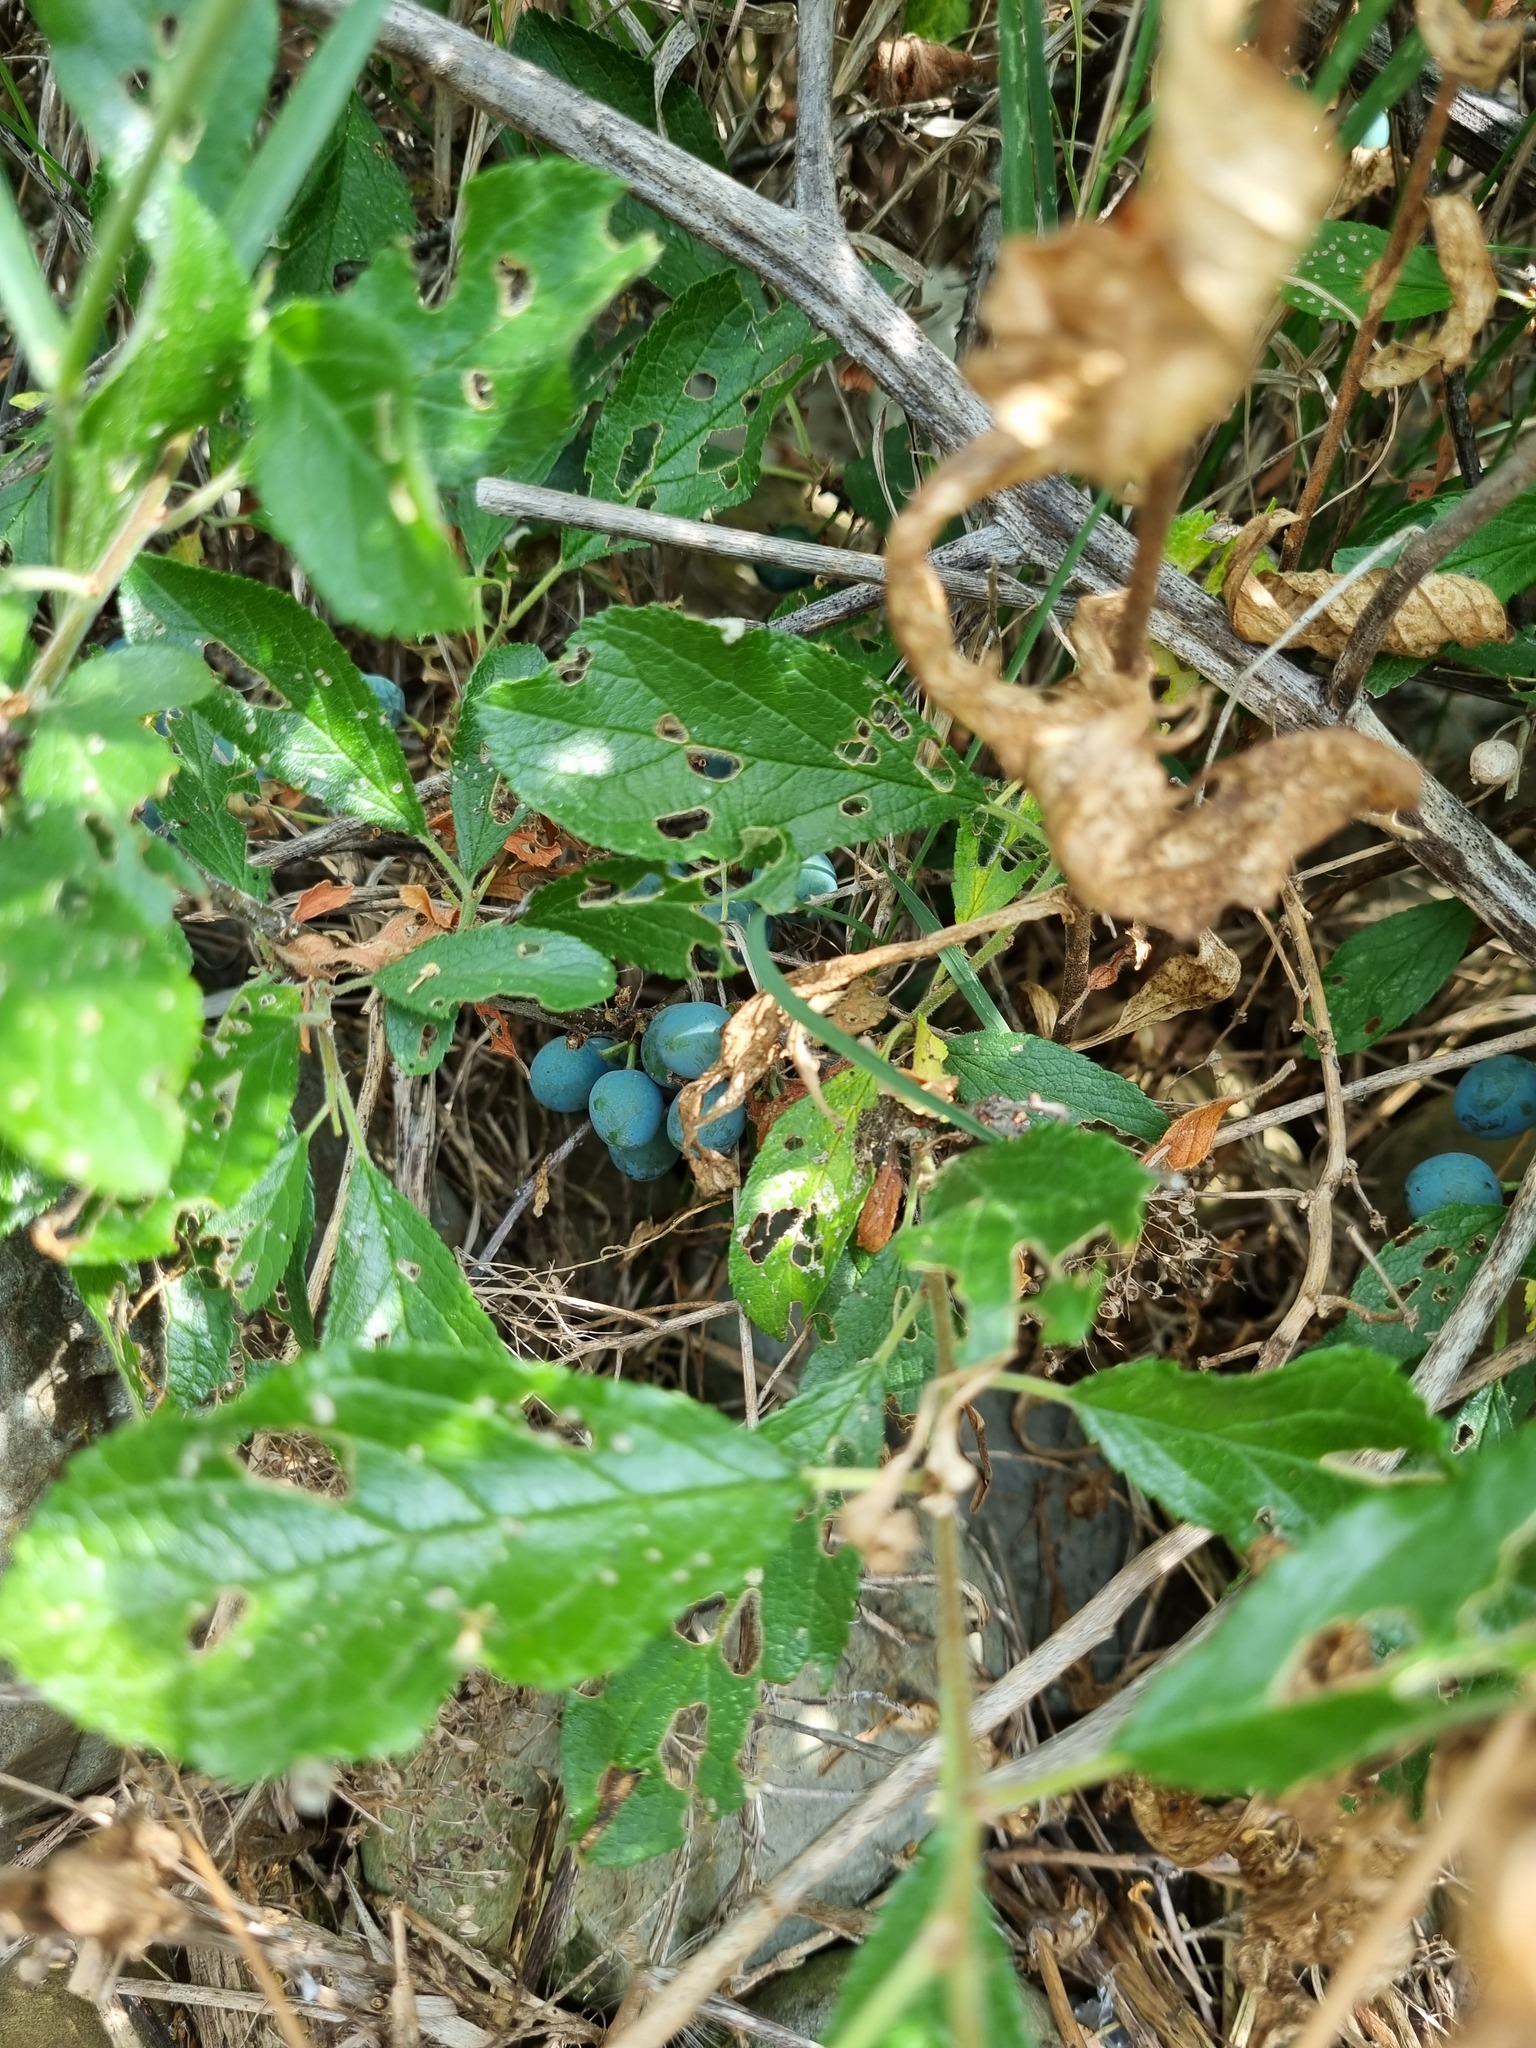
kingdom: Plantae
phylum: Tracheophyta
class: Magnoliopsida
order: Rosales
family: Rosaceae
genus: Prunus
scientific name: Prunus spinosa
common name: Blackthorn
